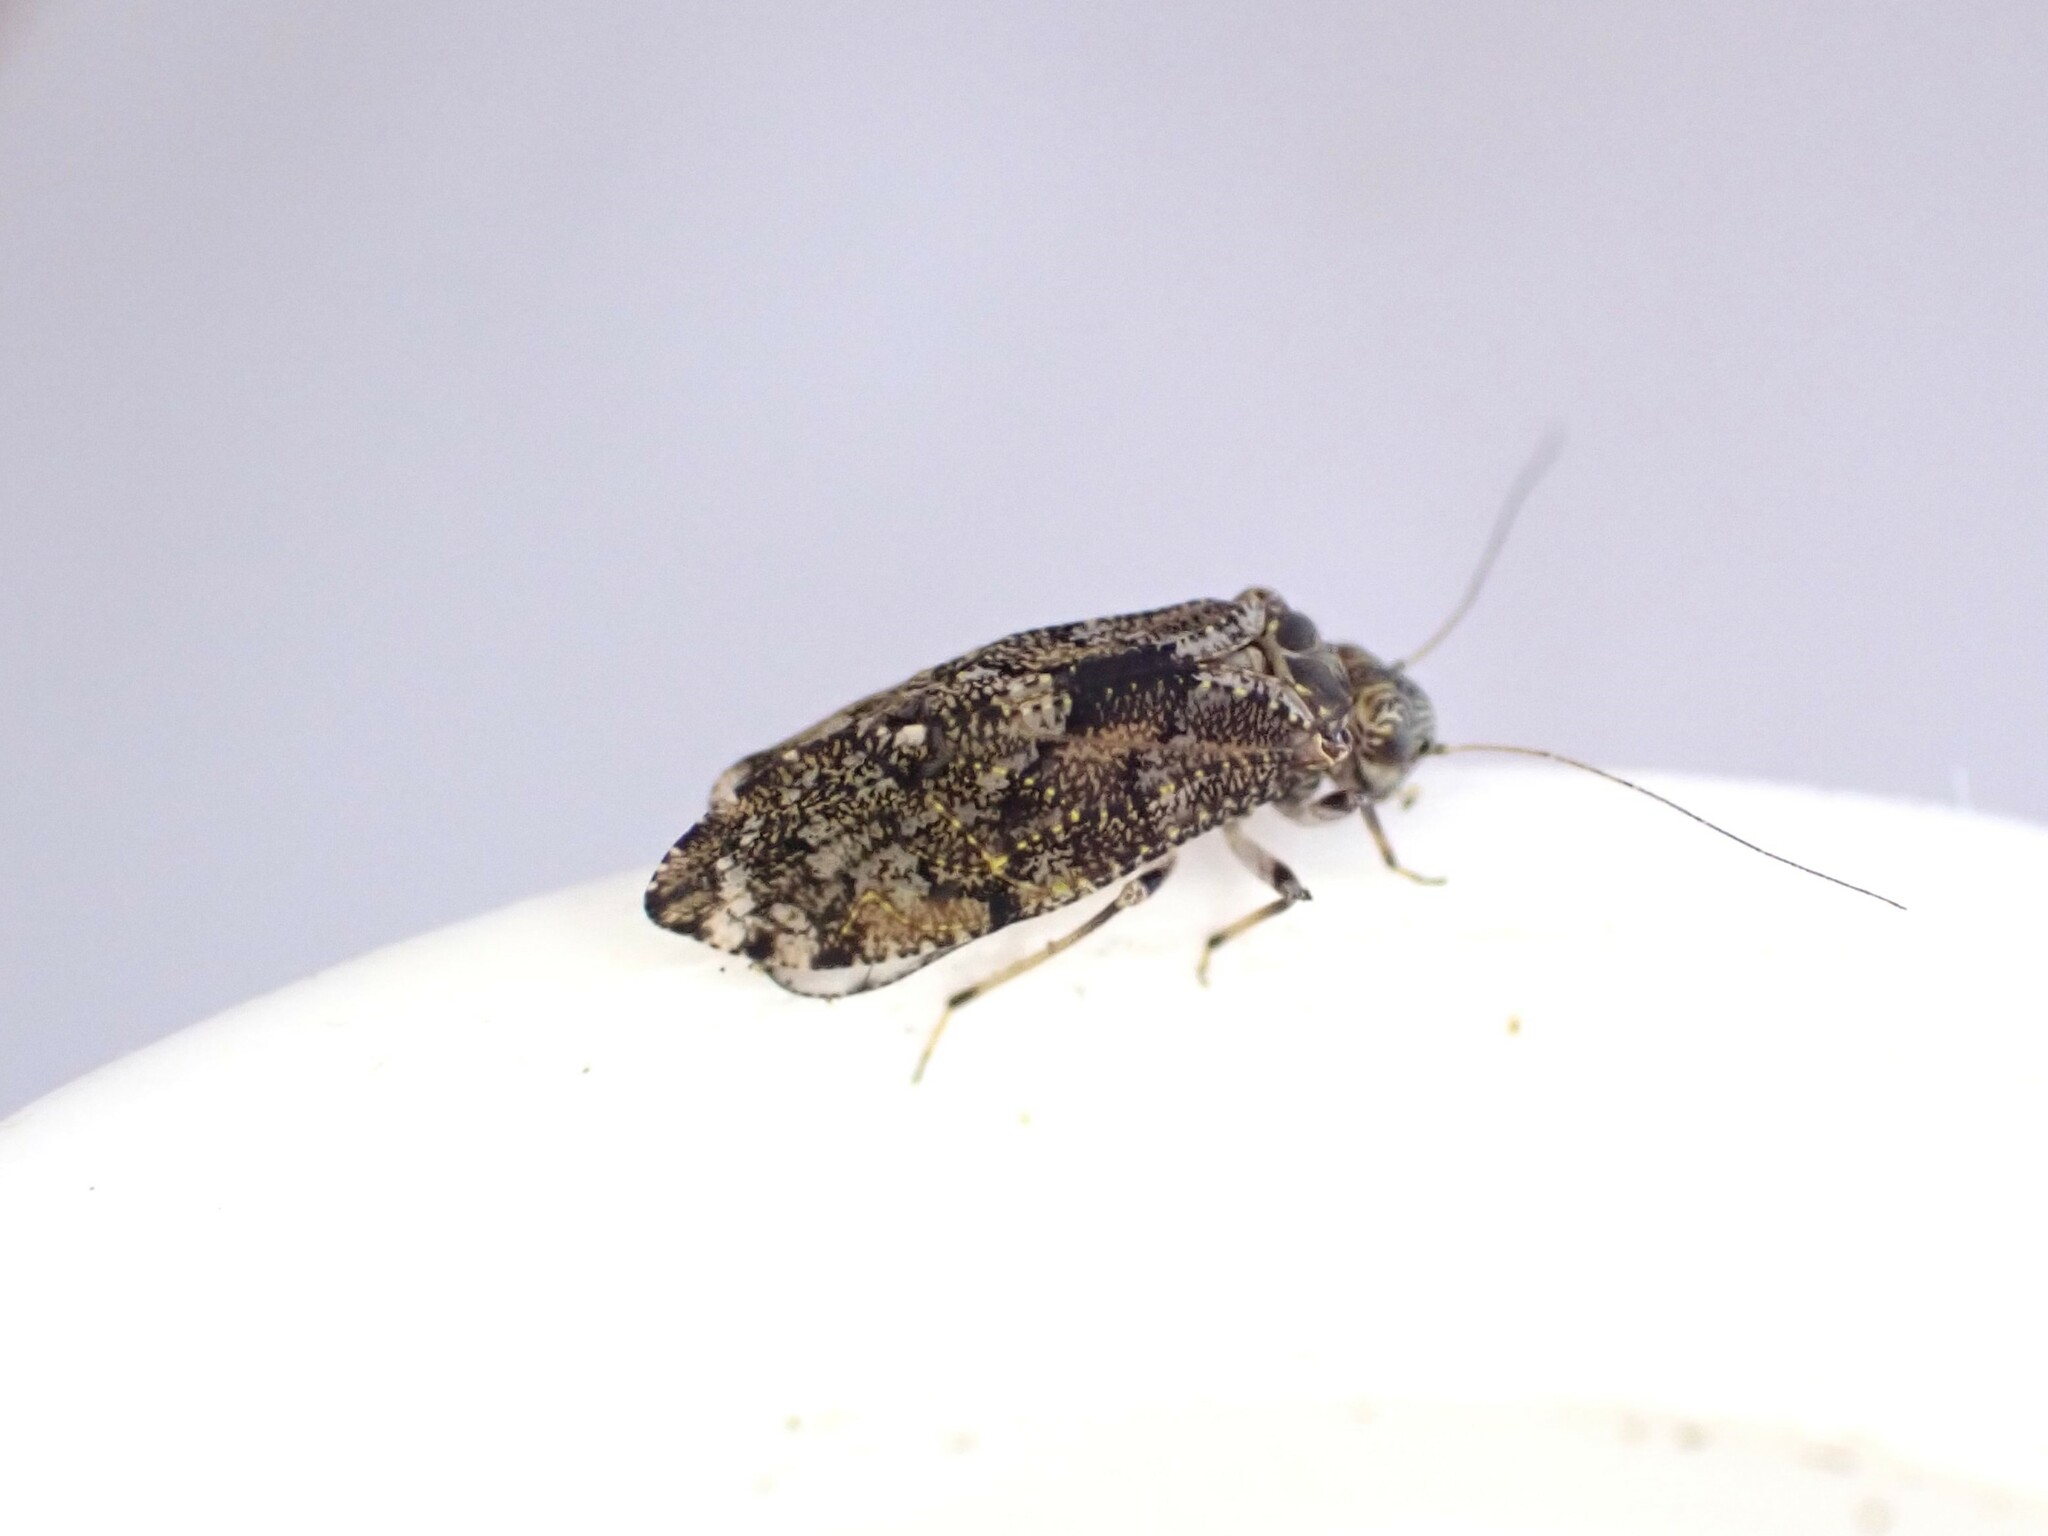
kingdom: Animalia
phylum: Arthropoda
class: Insecta
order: Psocodea
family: Myopsocidae
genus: Nimbopsocus
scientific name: Nimbopsocus australis
